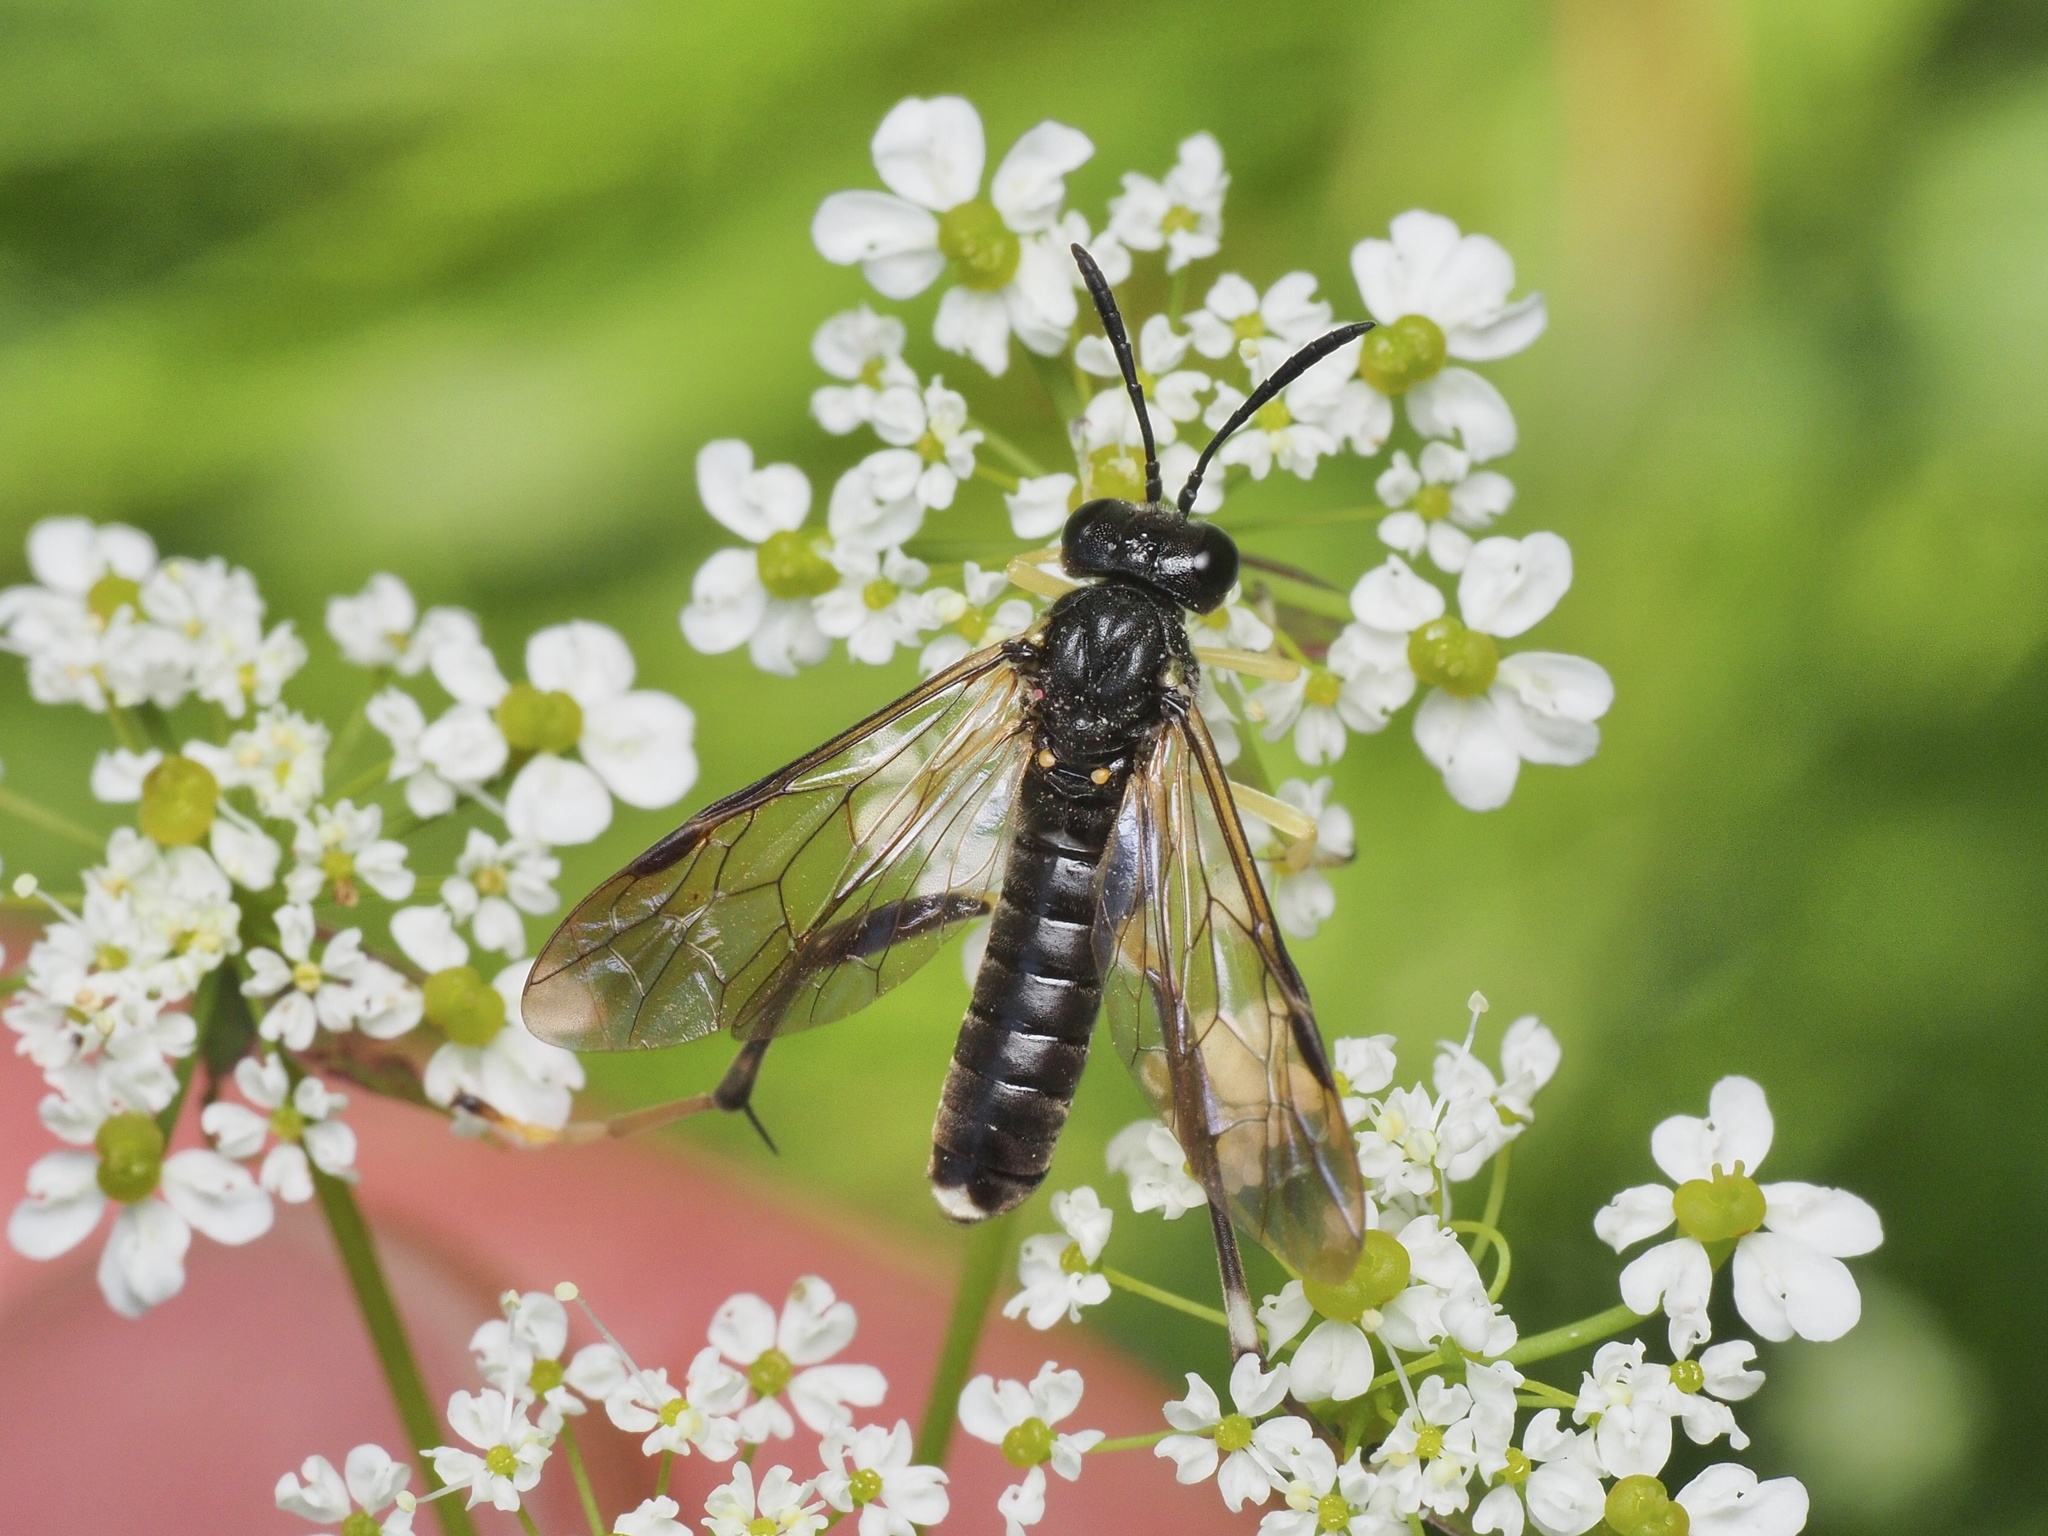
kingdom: Animalia
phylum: Arthropoda
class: Insecta
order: Hymenoptera
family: Tenthredinidae
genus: Macrophya
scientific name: Macrophya montana
